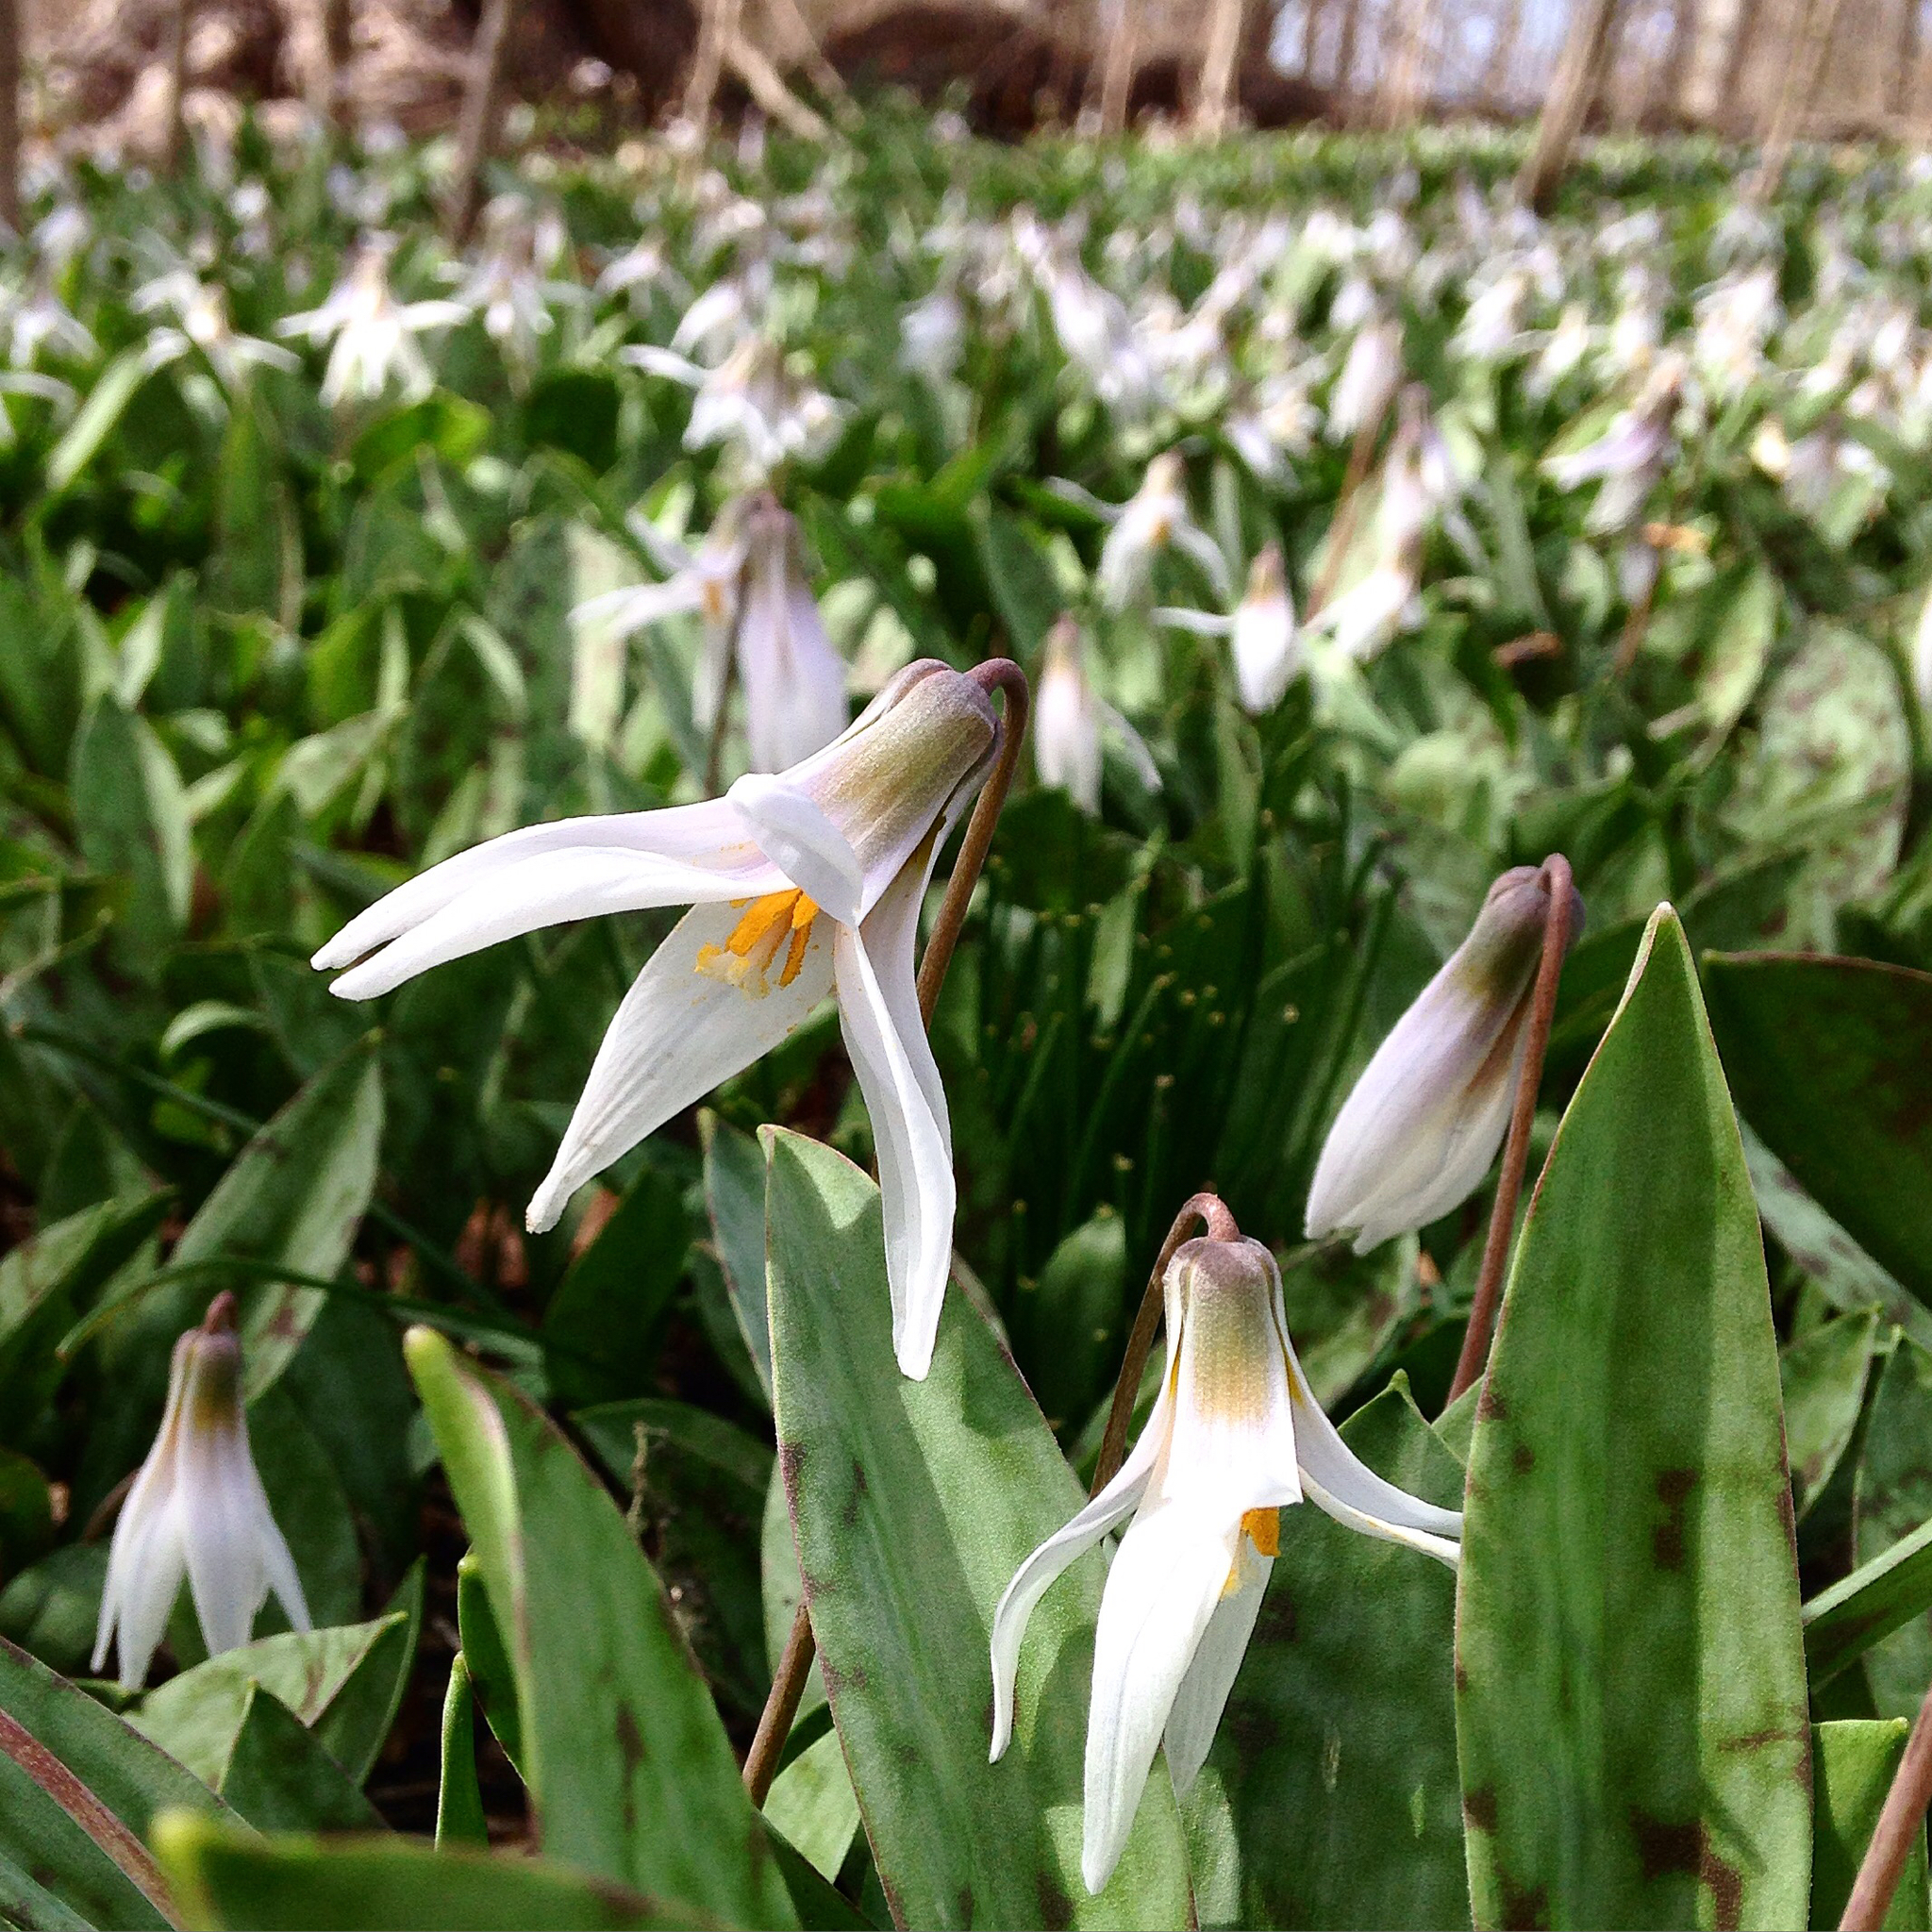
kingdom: Plantae
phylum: Tracheophyta
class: Liliopsida
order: Liliales
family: Liliaceae
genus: Erythronium
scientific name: Erythronium albidum
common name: White trout-lily
